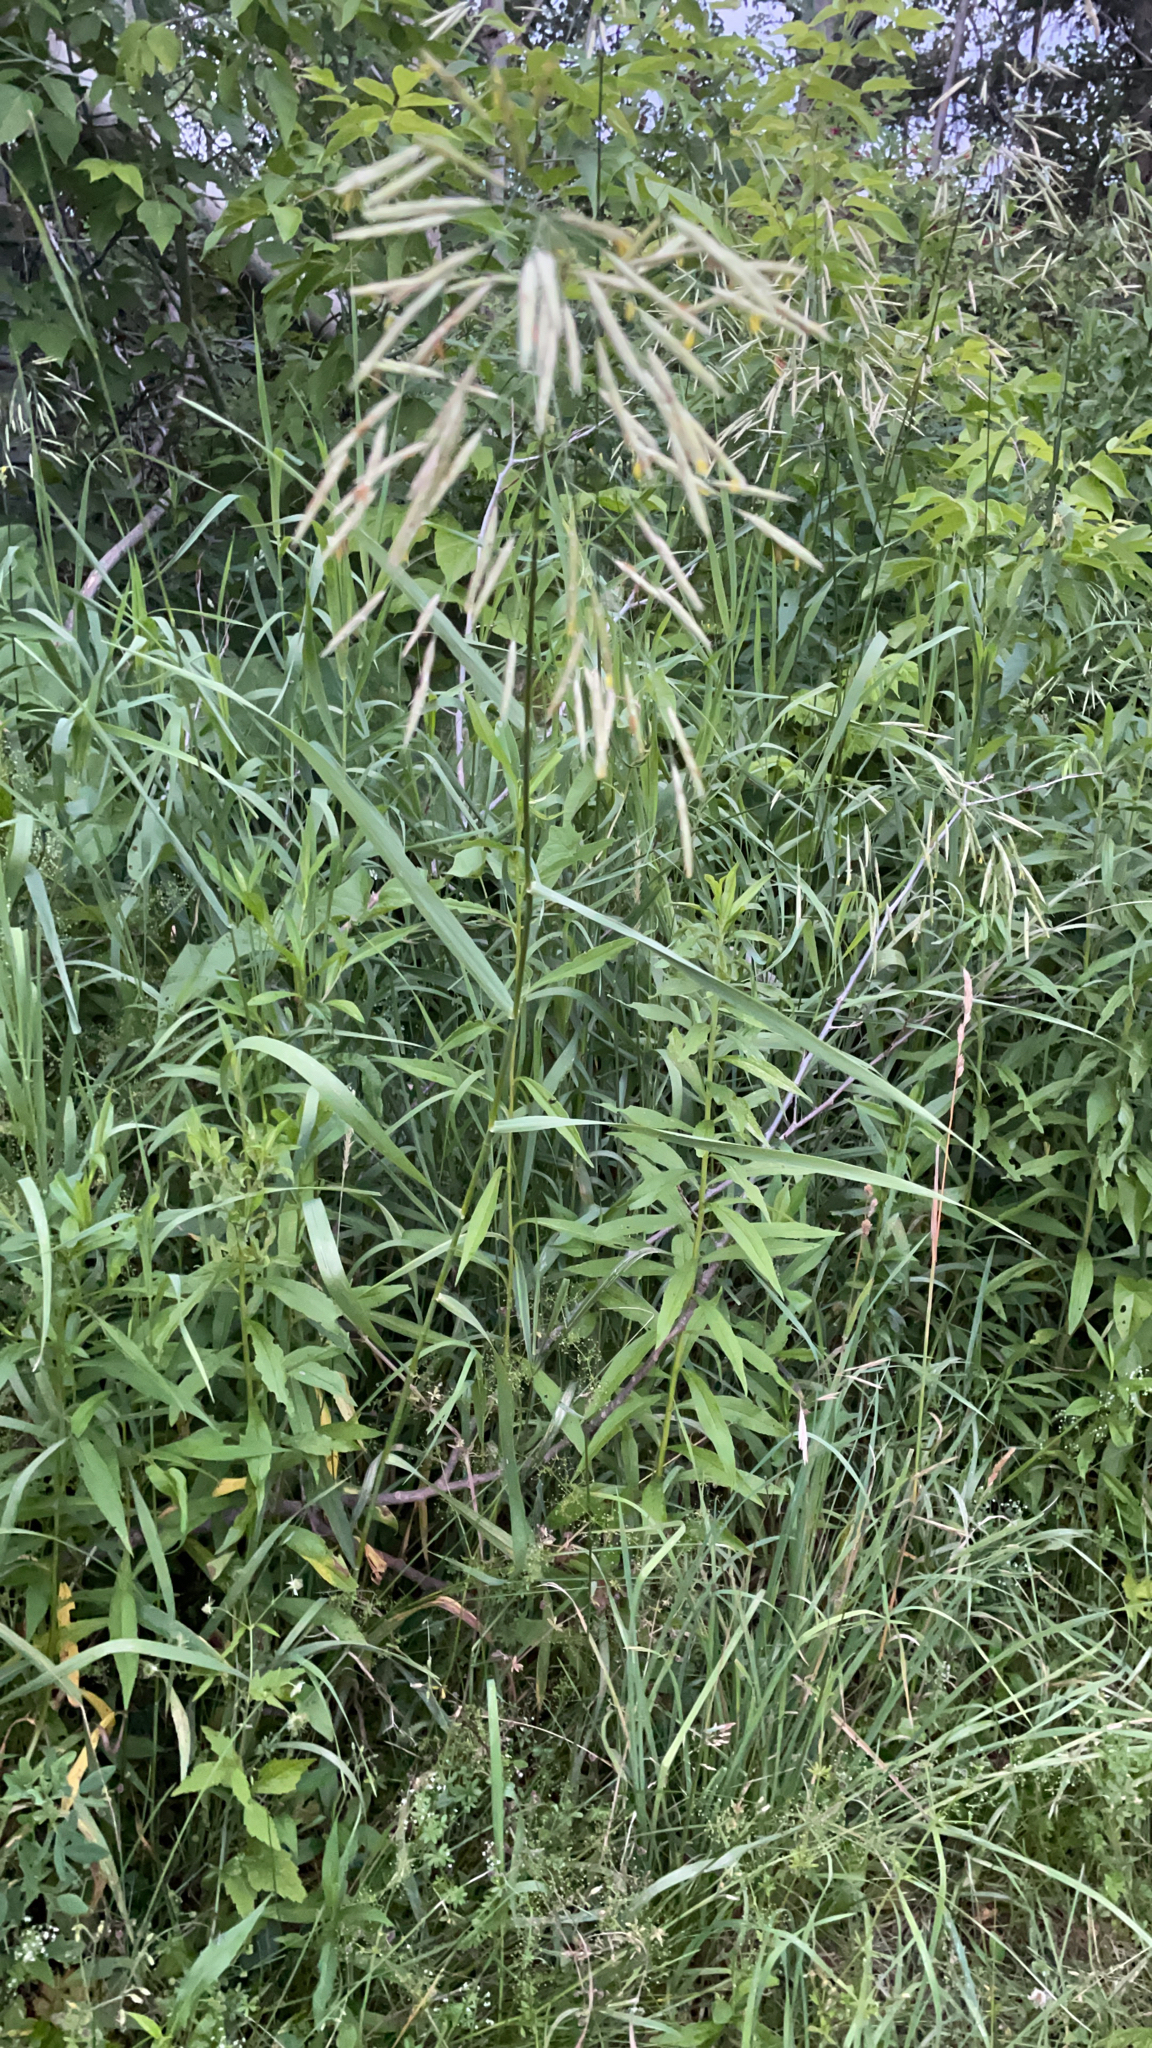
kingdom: Plantae
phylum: Tracheophyta
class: Liliopsida
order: Poales
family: Poaceae
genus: Bromus
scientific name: Bromus inermis
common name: Smooth brome
